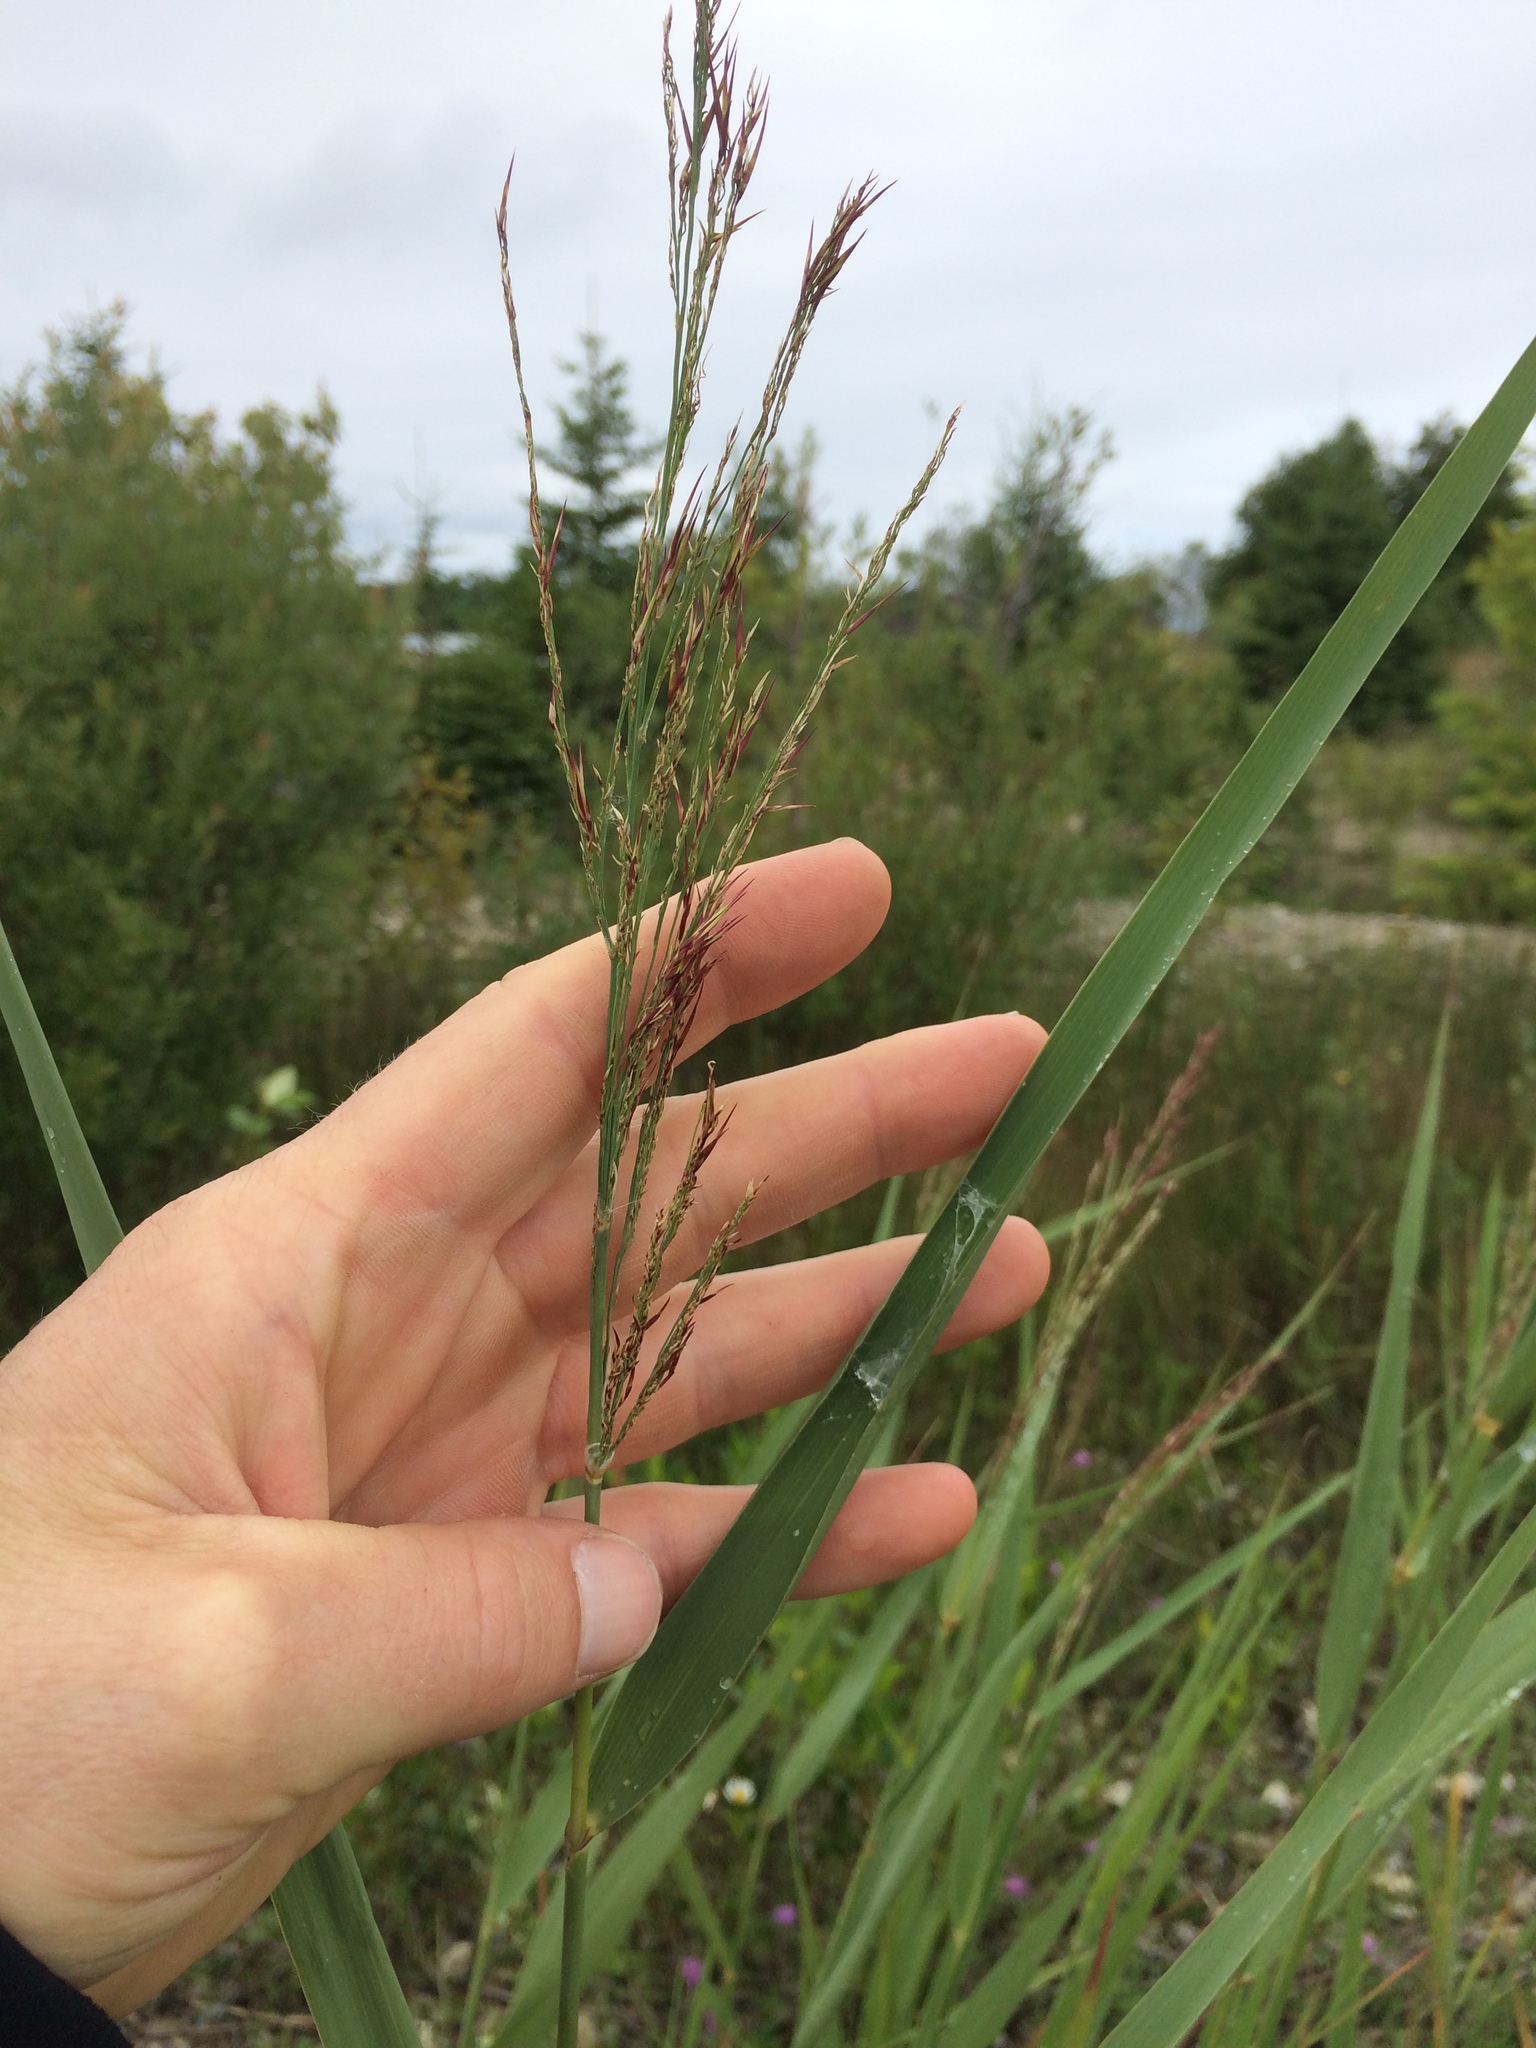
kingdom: Plantae
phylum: Tracheophyta
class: Liliopsida
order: Poales
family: Poaceae
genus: Phragmites
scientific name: Phragmites australis
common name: Common reed
